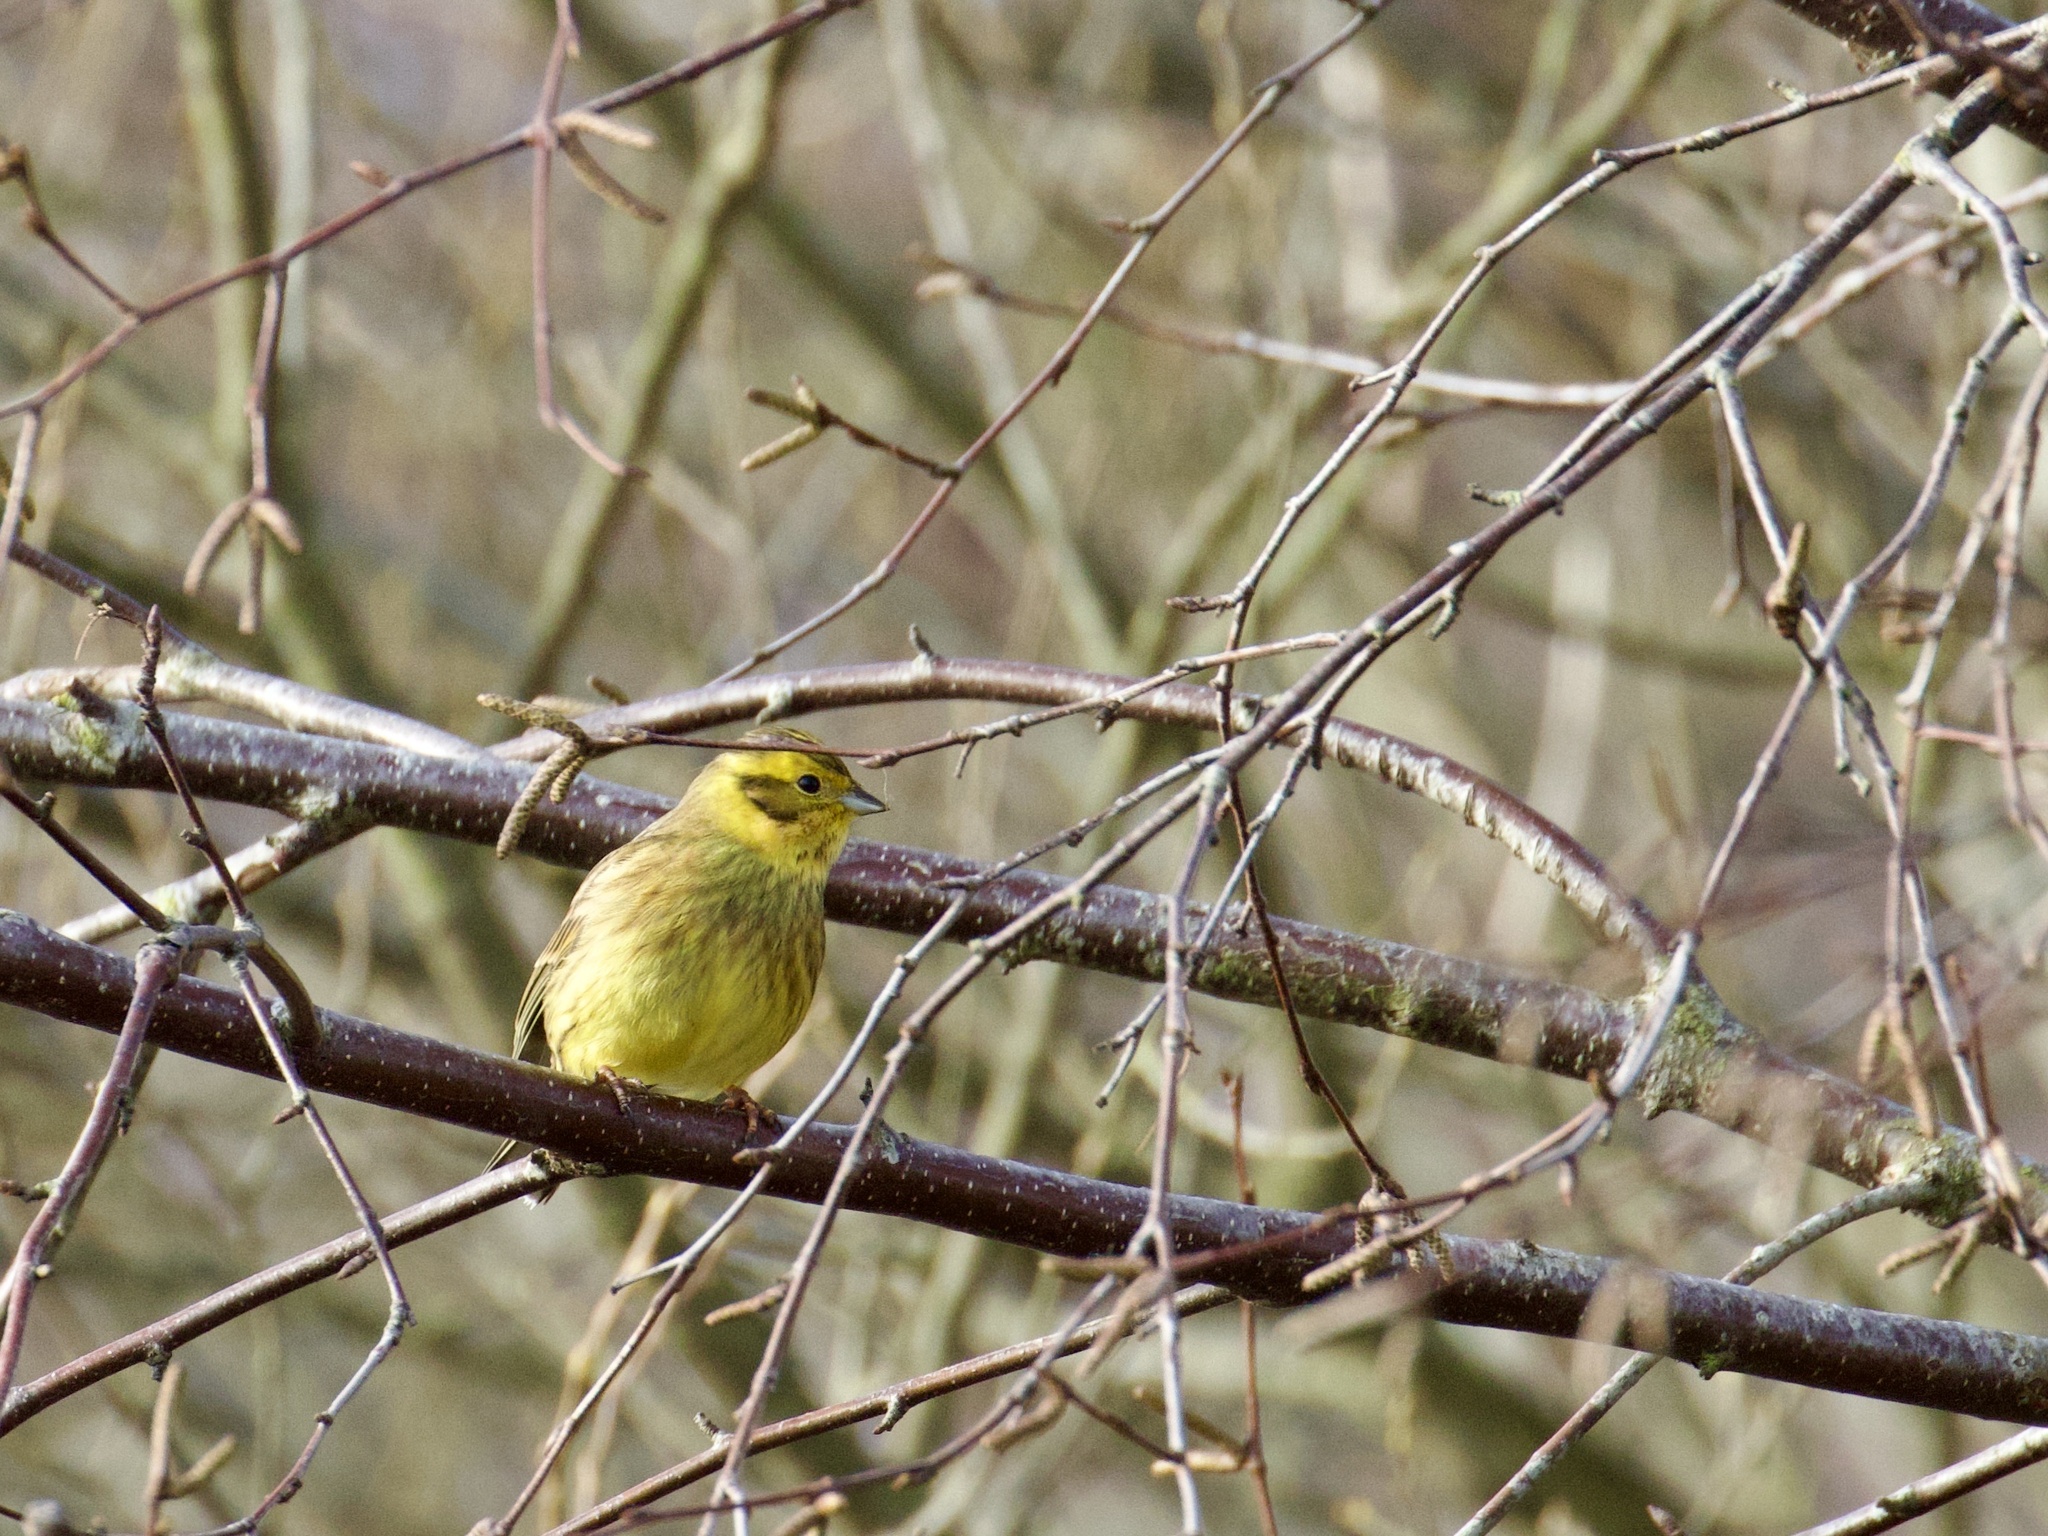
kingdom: Animalia
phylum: Chordata
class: Aves
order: Passeriformes
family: Emberizidae
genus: Emberiza
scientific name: Emberiza citrinella
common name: Yellowhammer
